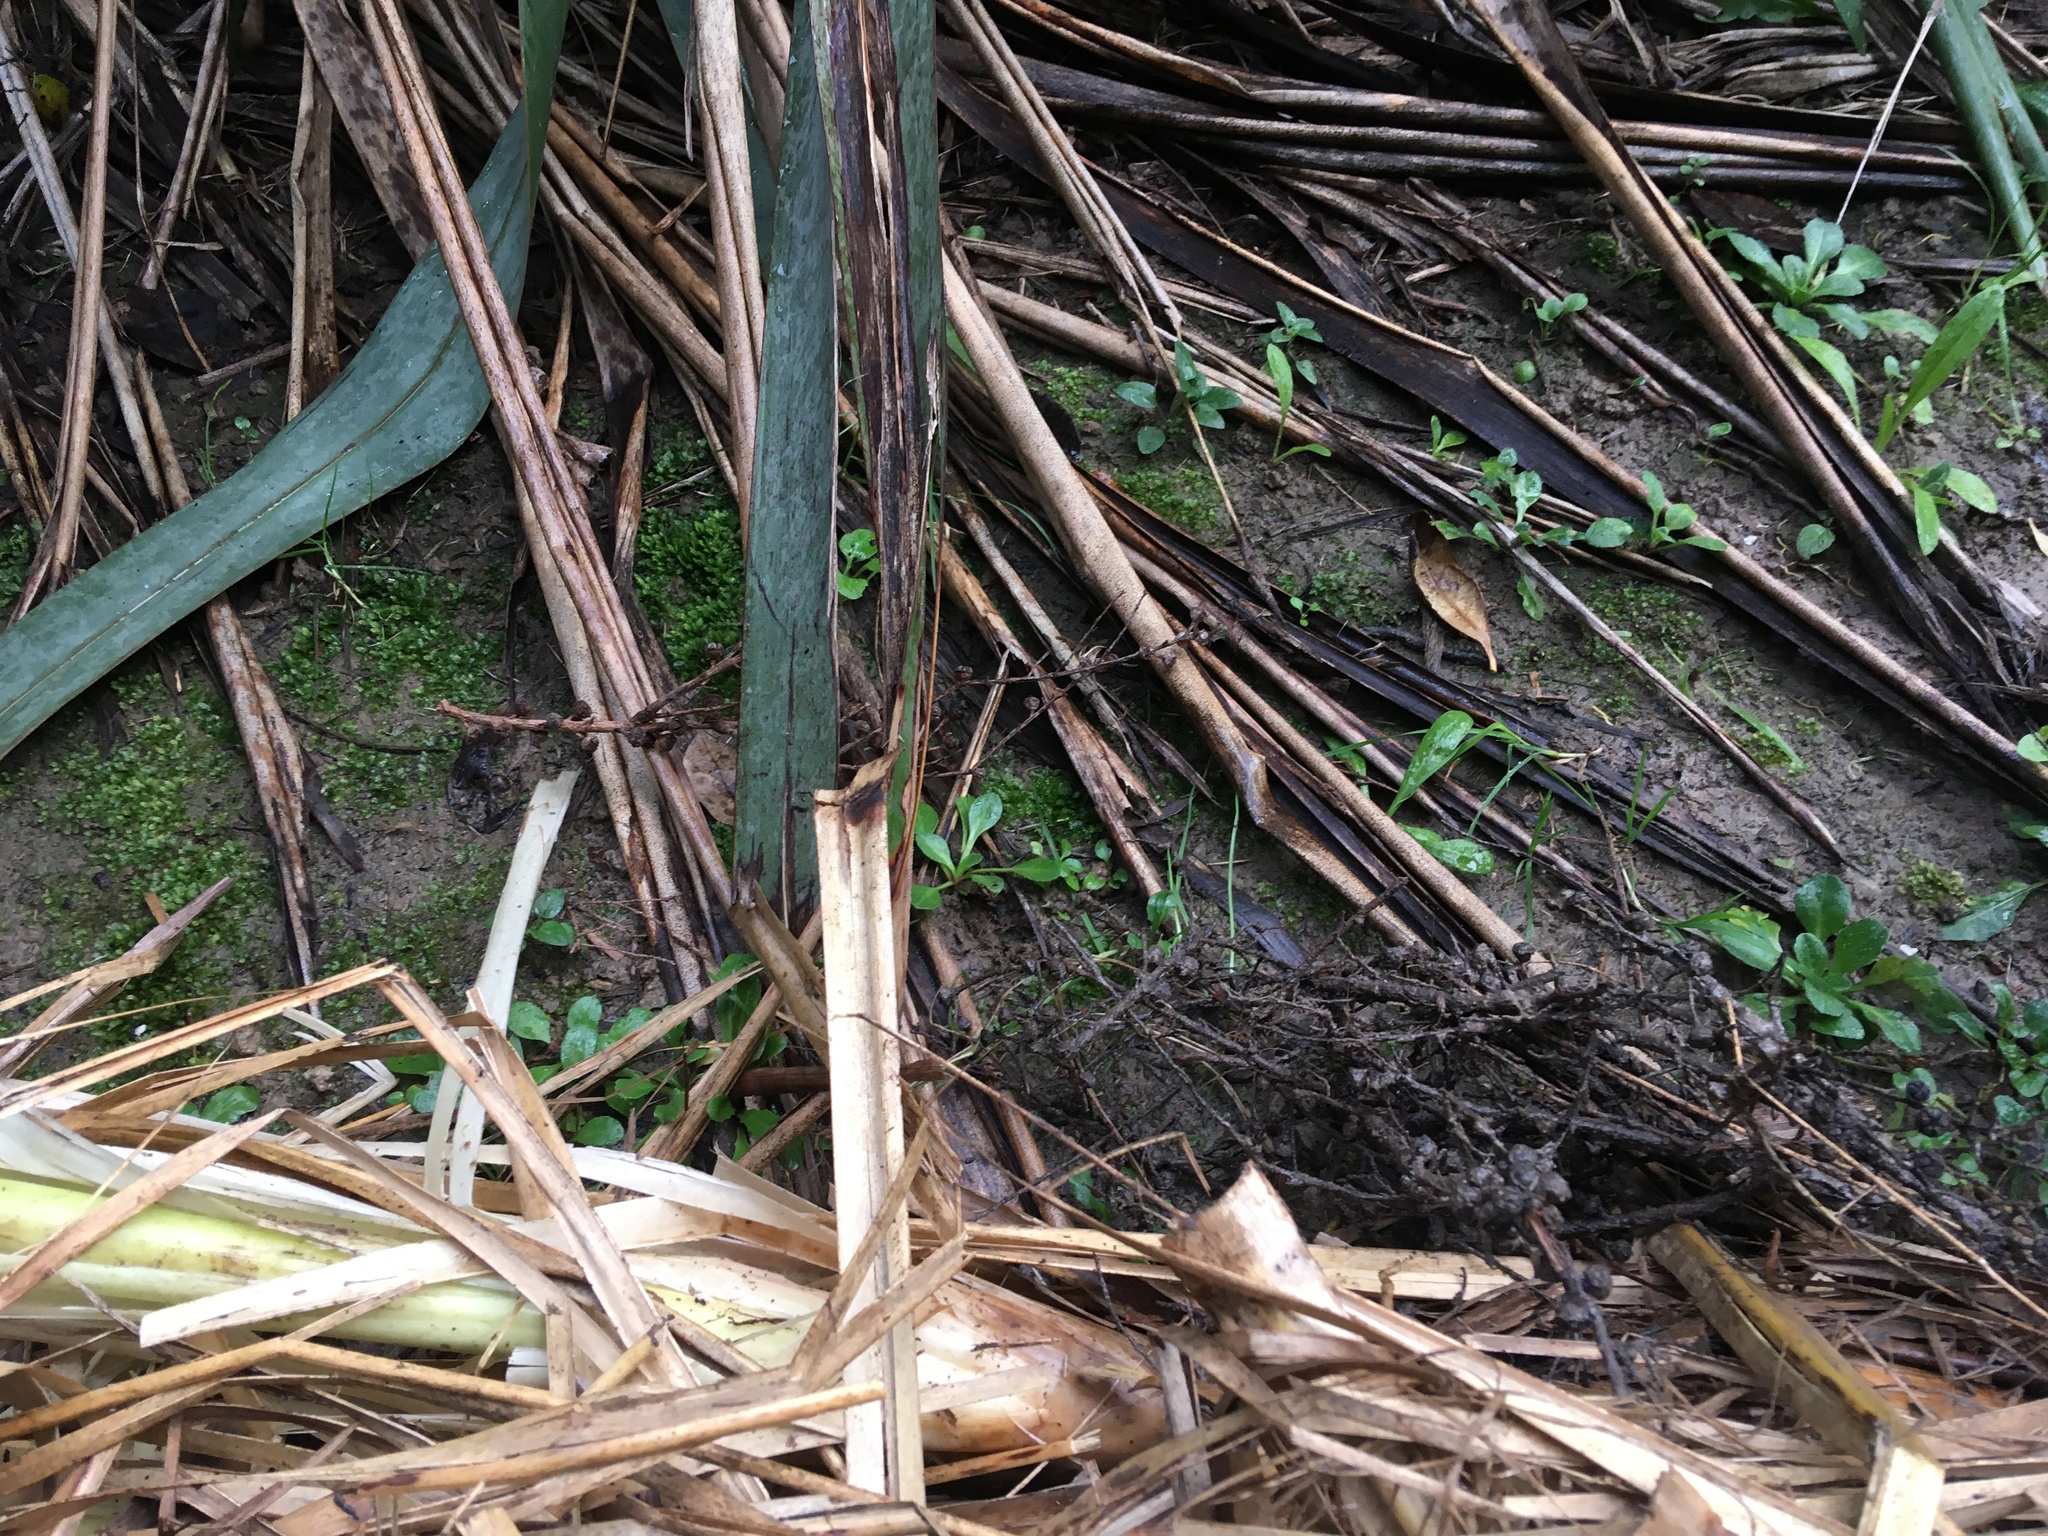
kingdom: Plantae
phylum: Tracheophyta
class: Magnoliopsida
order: Asterales
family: Asteraceae
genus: Bellis
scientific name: Bellis perennis
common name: Lawndaisy
